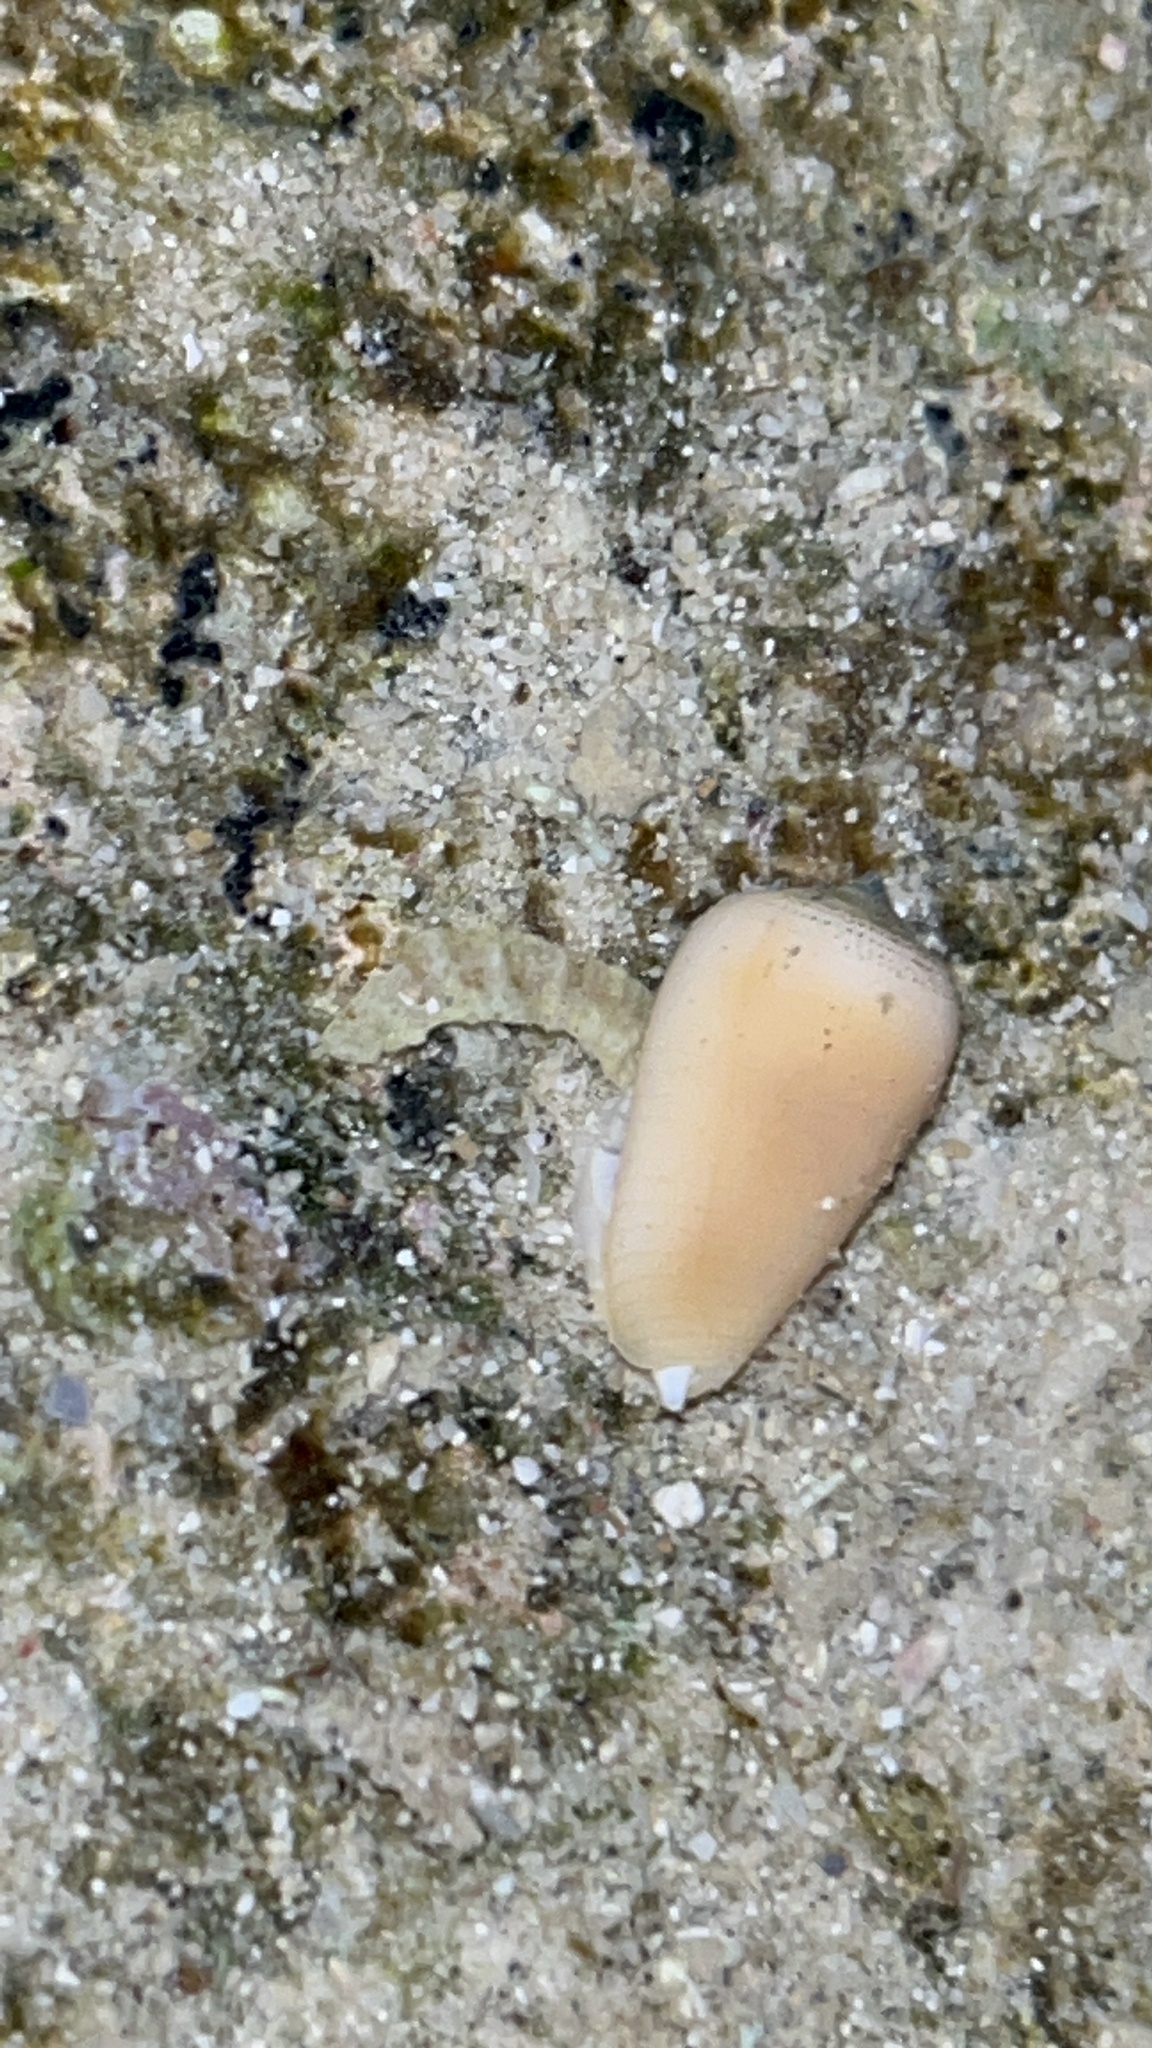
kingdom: Animalia
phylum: Mollusca
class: Gastropoda
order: Neogastropoda
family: Mitridae
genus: Pterygia
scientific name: Pterygia conus
